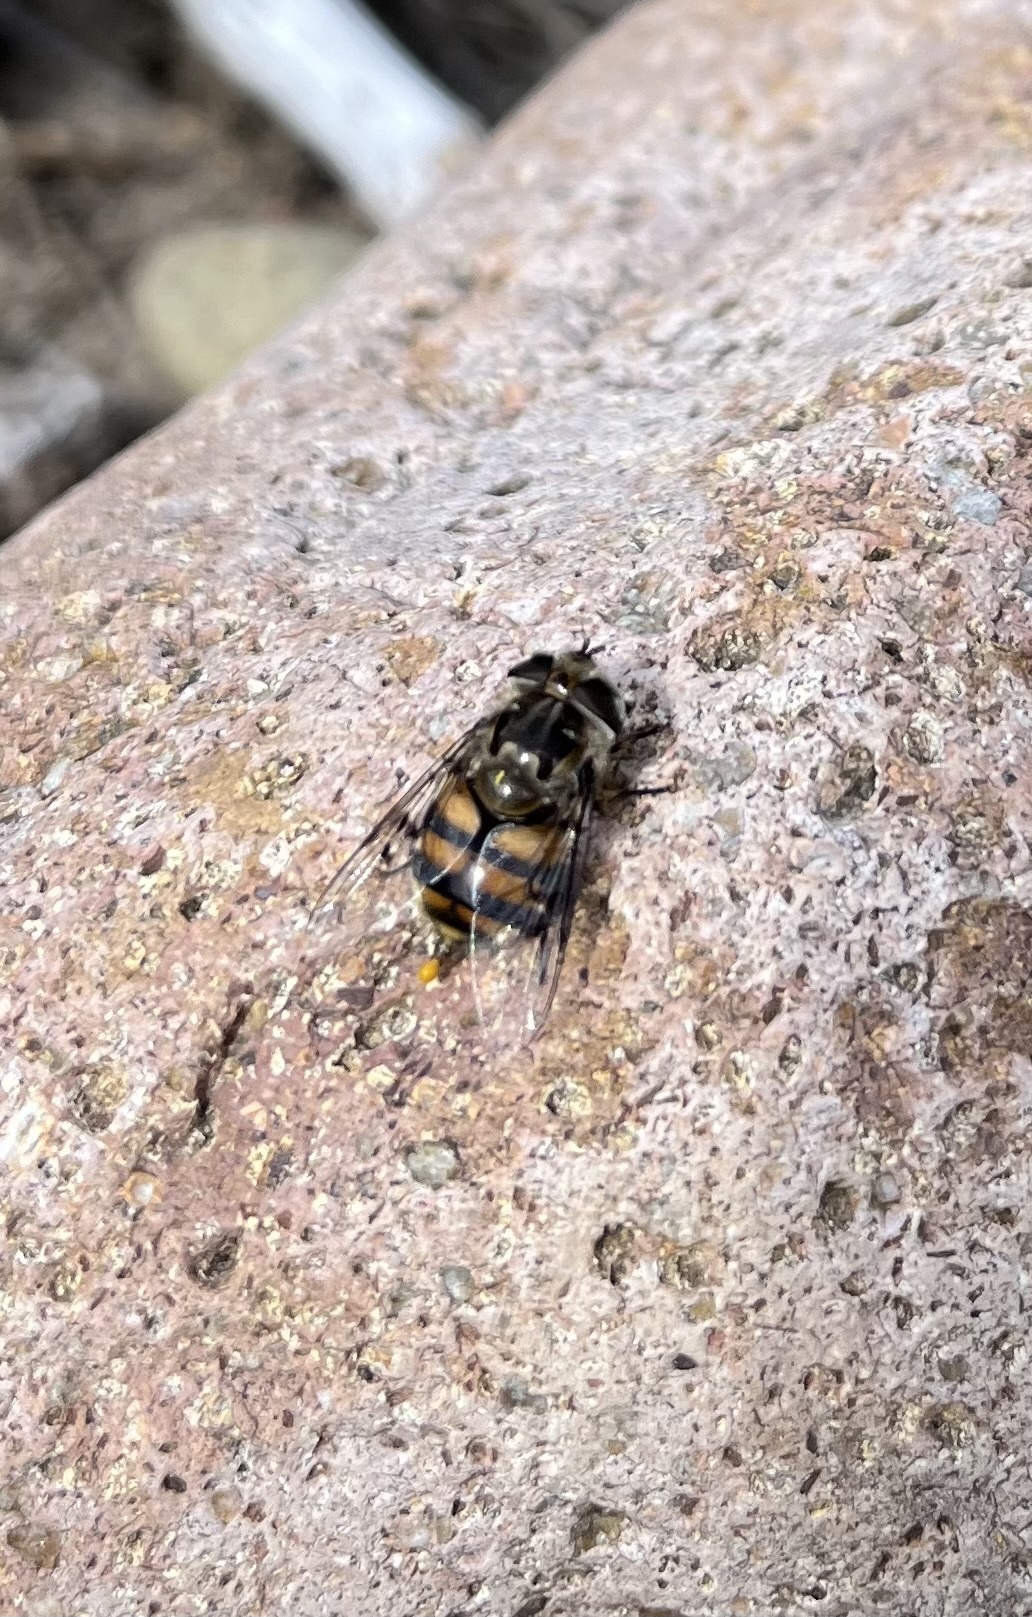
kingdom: Animalia
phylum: Arthropoda
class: Insecta
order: Diptera
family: Syrphidae
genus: Copestylum
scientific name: Copestylum avidum
